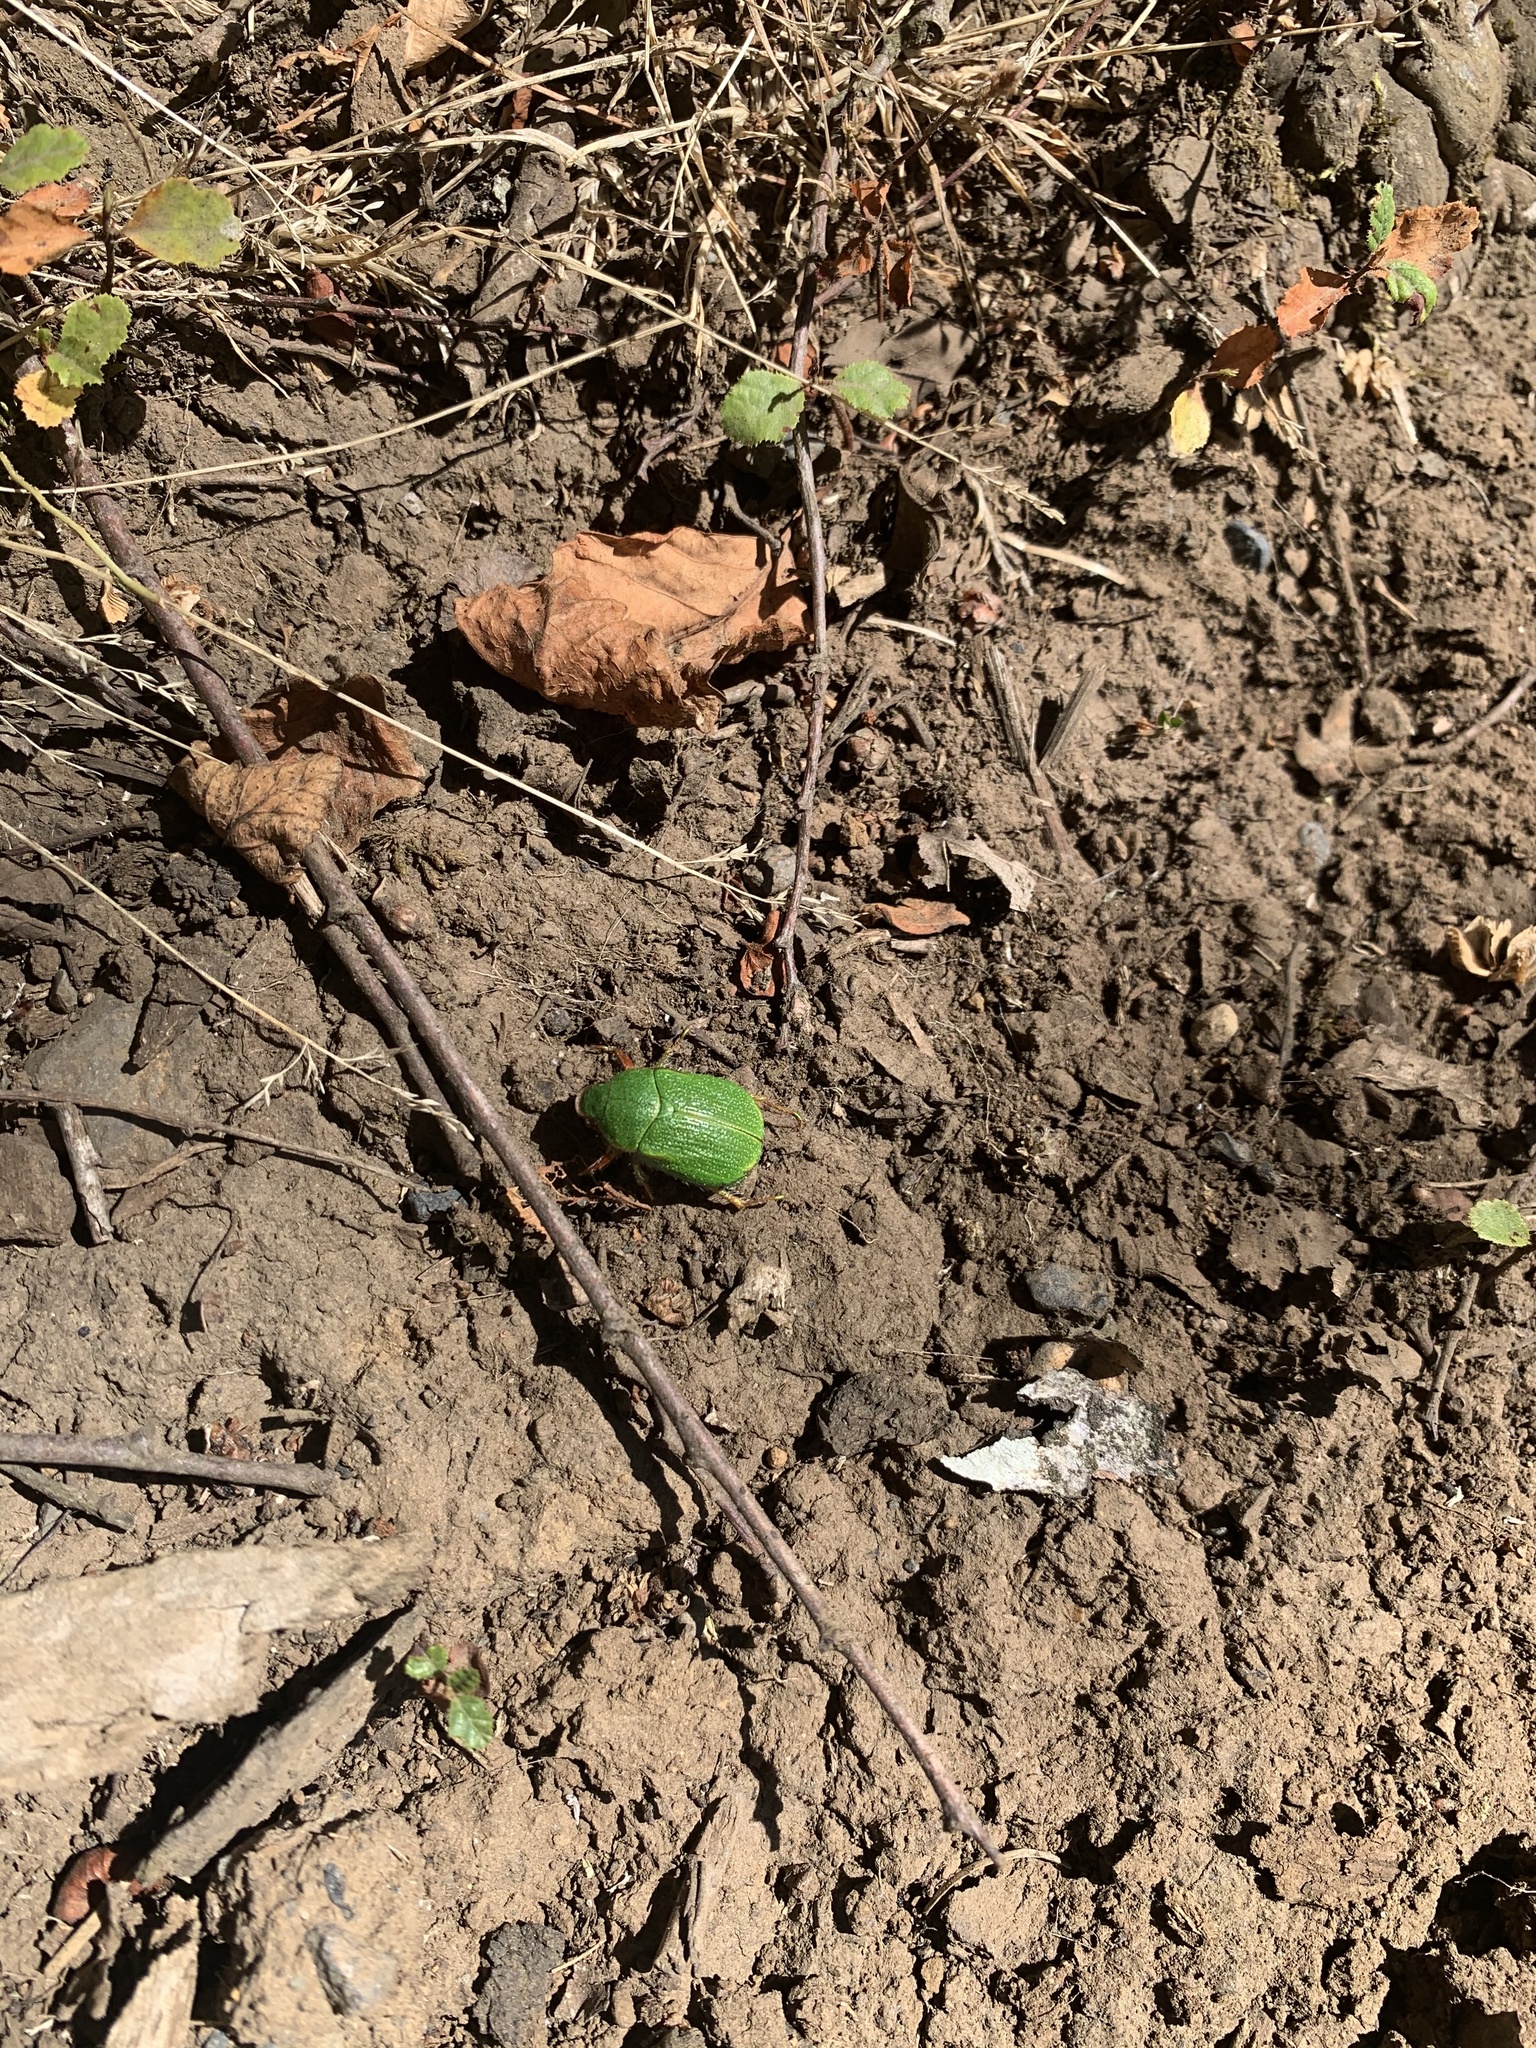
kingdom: Animalia
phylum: Arthropoda
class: Insecta
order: Coleoptera
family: Scarabaeidae
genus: Hylamorpha
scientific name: Hylamorpha elegans
